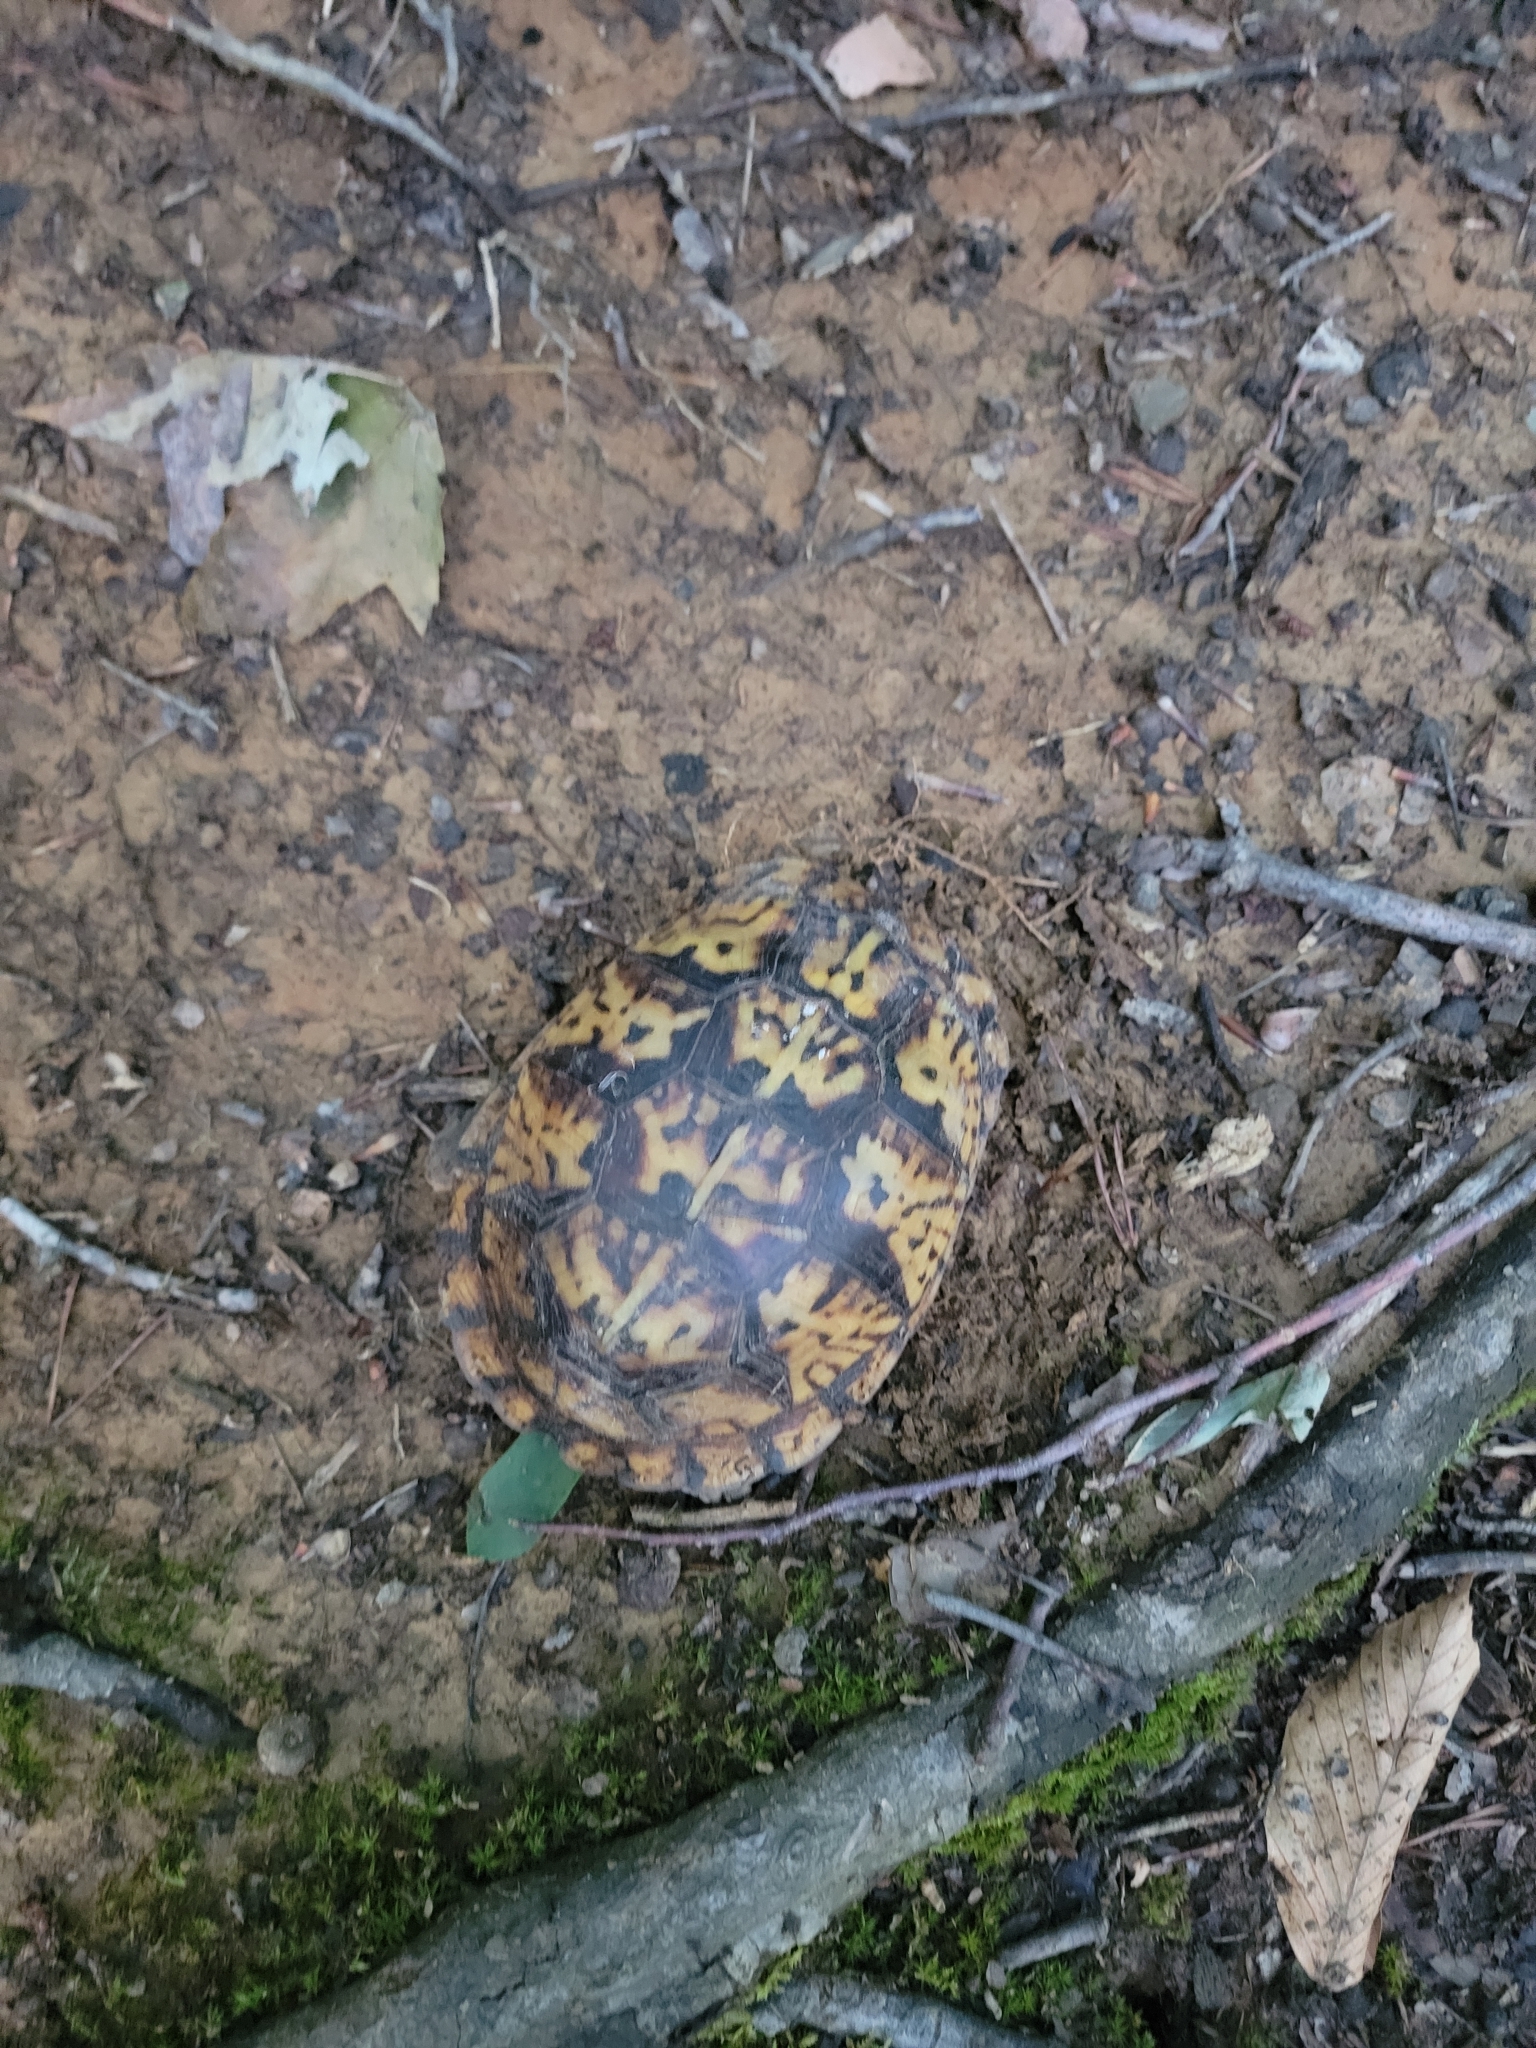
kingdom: Animalia
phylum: Chordata
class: Testudines
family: Emydidae
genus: Terrapene
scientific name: Terrapene carolina
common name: Common box turtle
